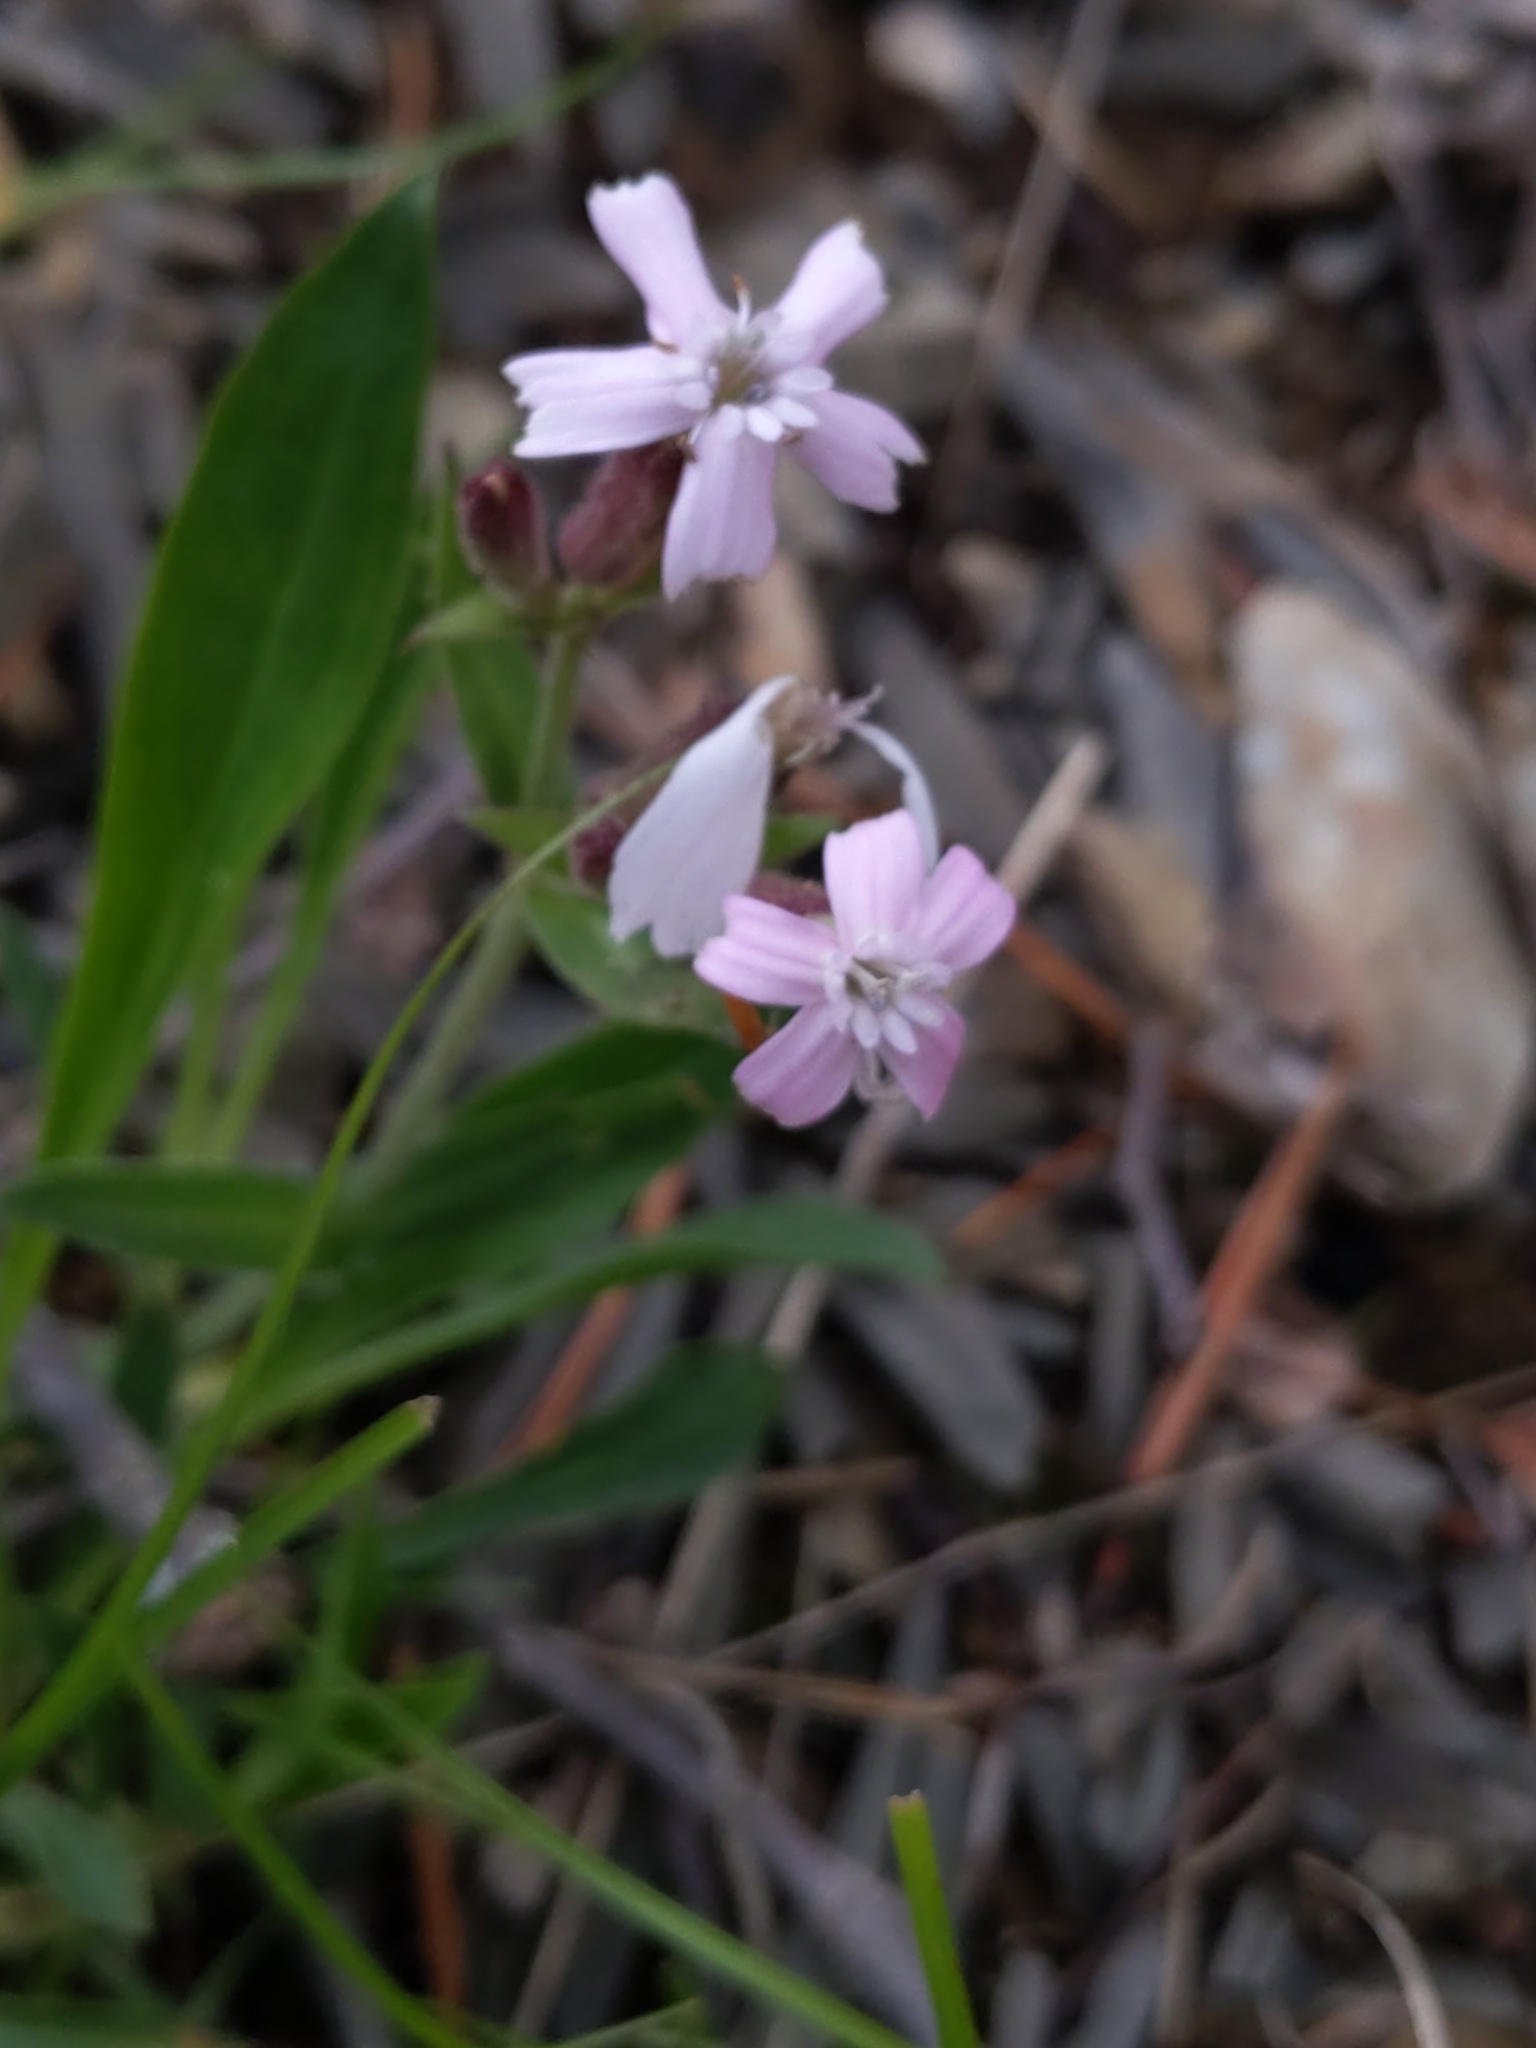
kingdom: Plantae
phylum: Tracheophyta
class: Magnoliopsida
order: Caryophyllales
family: Caryophyllaceae
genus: Silene
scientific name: Silene caroliniana
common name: Sticky catchfly
